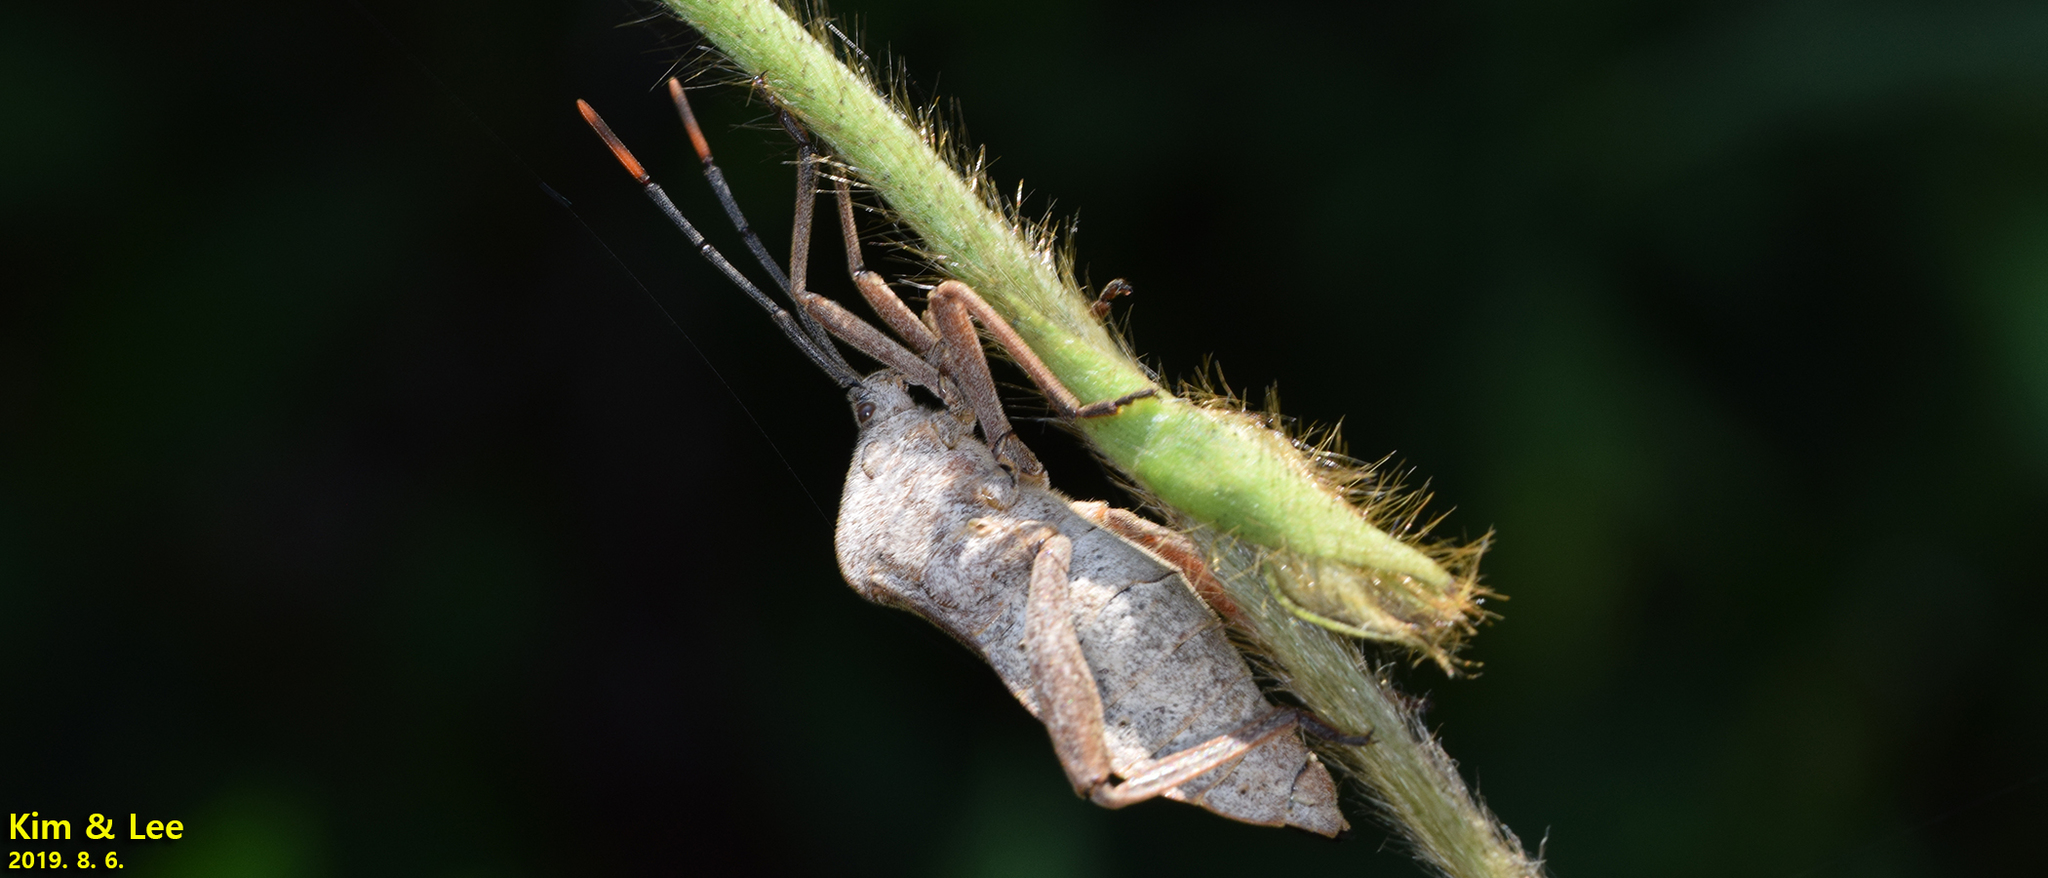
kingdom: Animalia
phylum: Arthropoda
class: Insecta
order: Hemiptera
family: Coreidae
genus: Anoplocnemis
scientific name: Anoplocnemis dallasi
